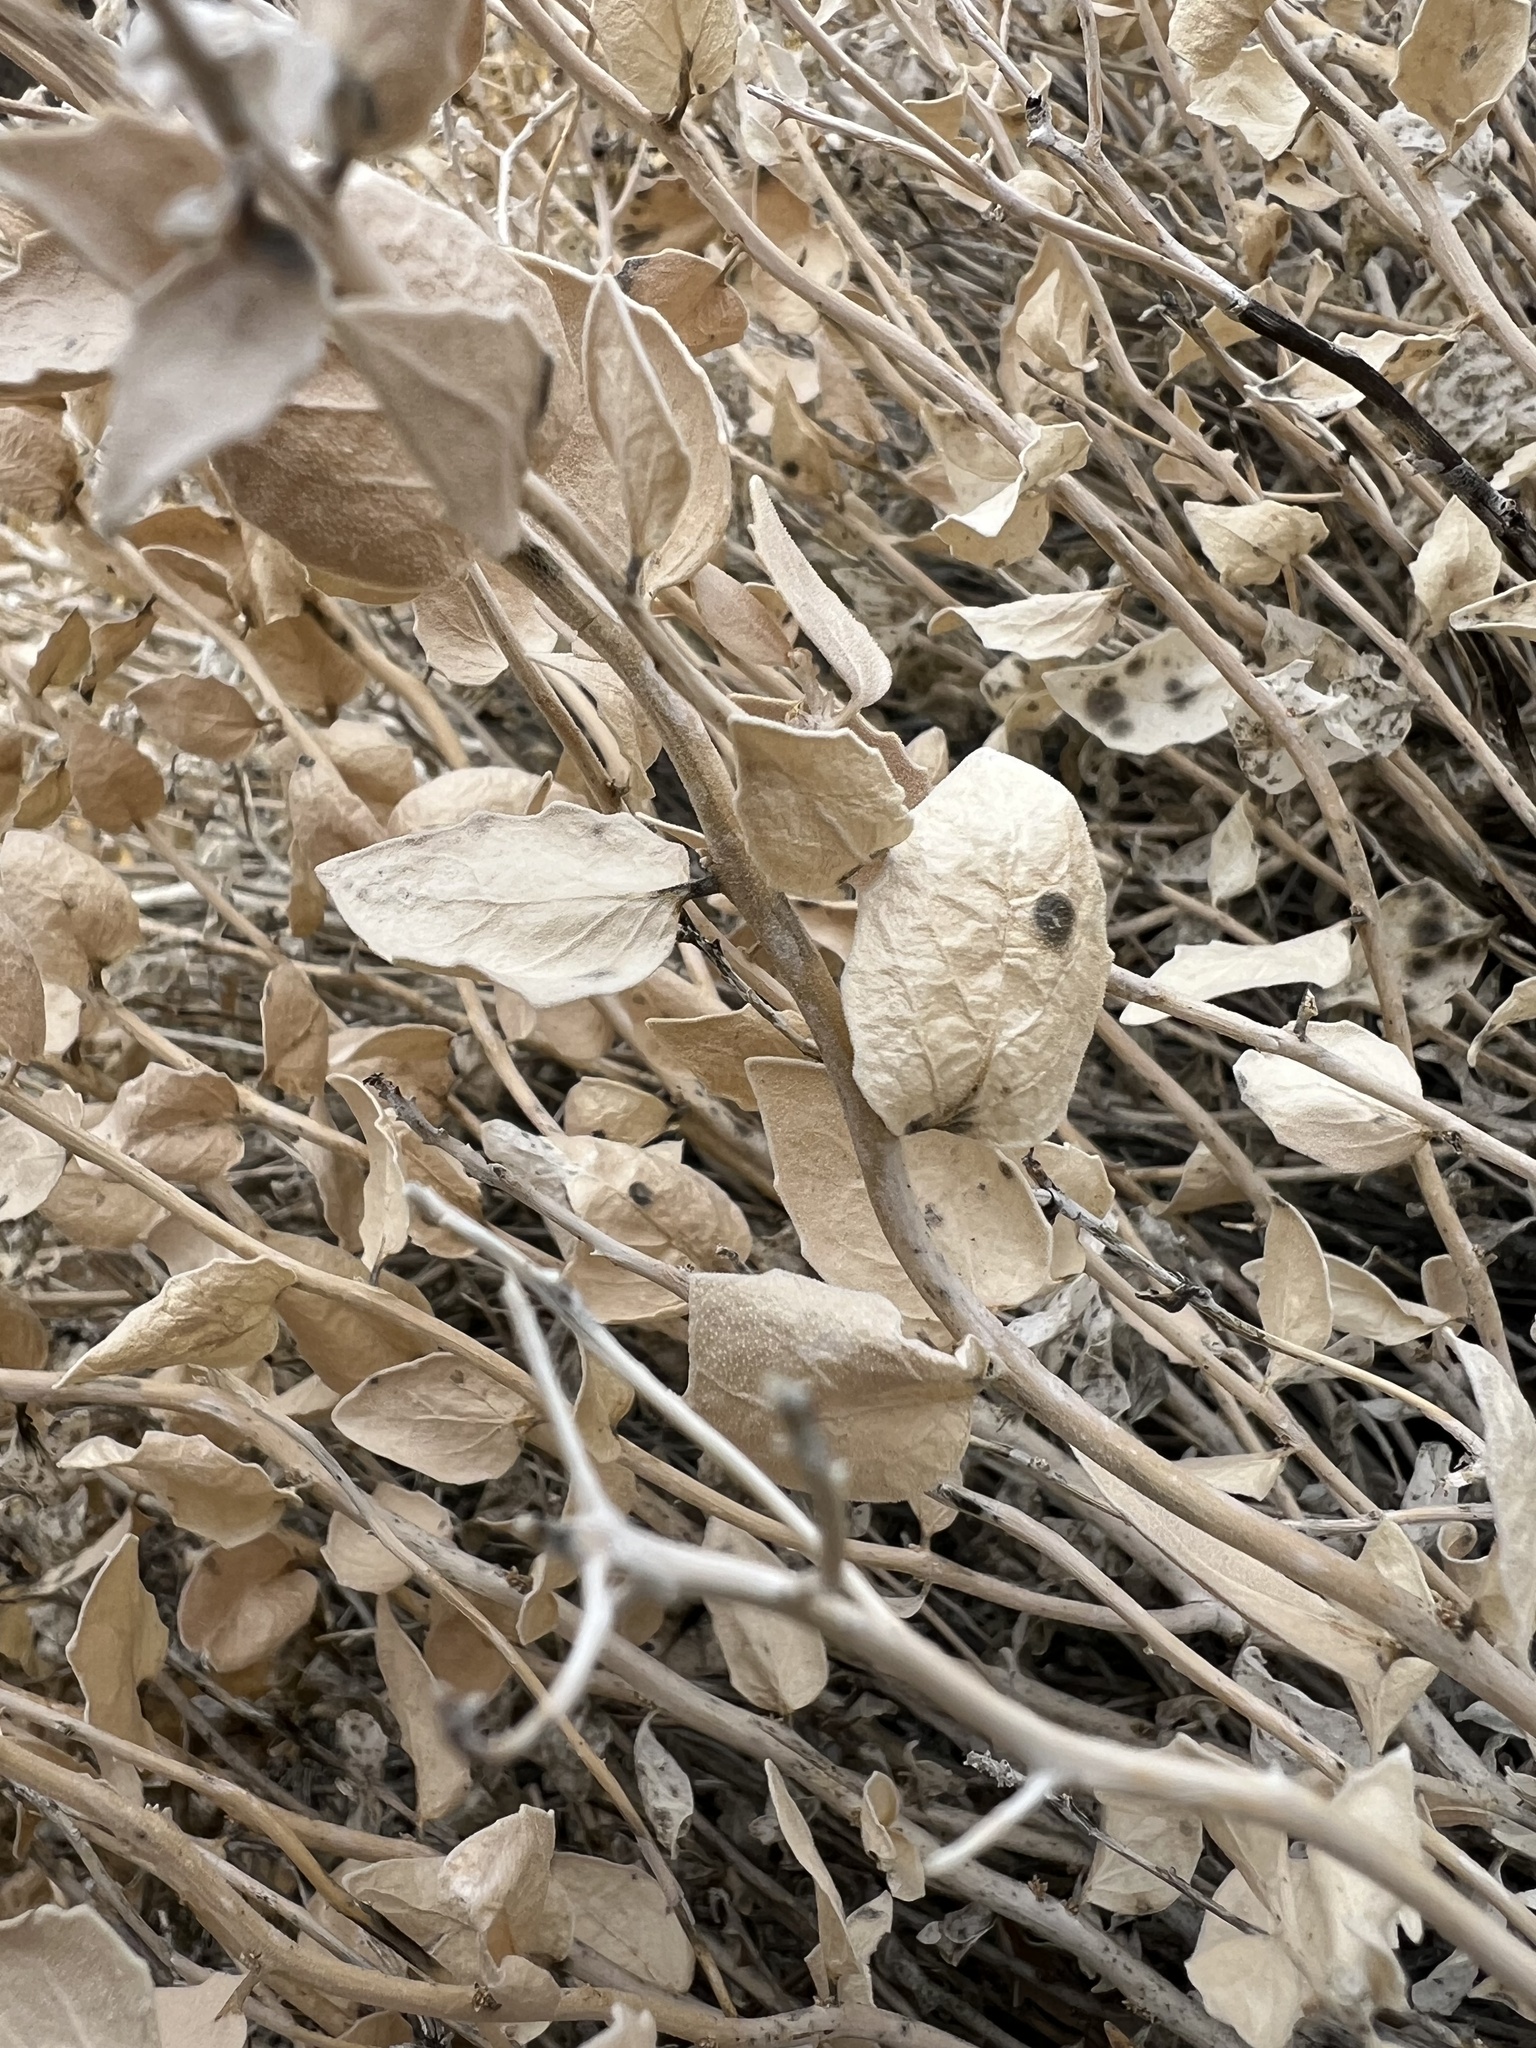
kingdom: Plantae
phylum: Tracheophyta
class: Magnoliopsida
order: Cornales
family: Loasaceae
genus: Petalonyx
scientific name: Petalonyx nitidus
